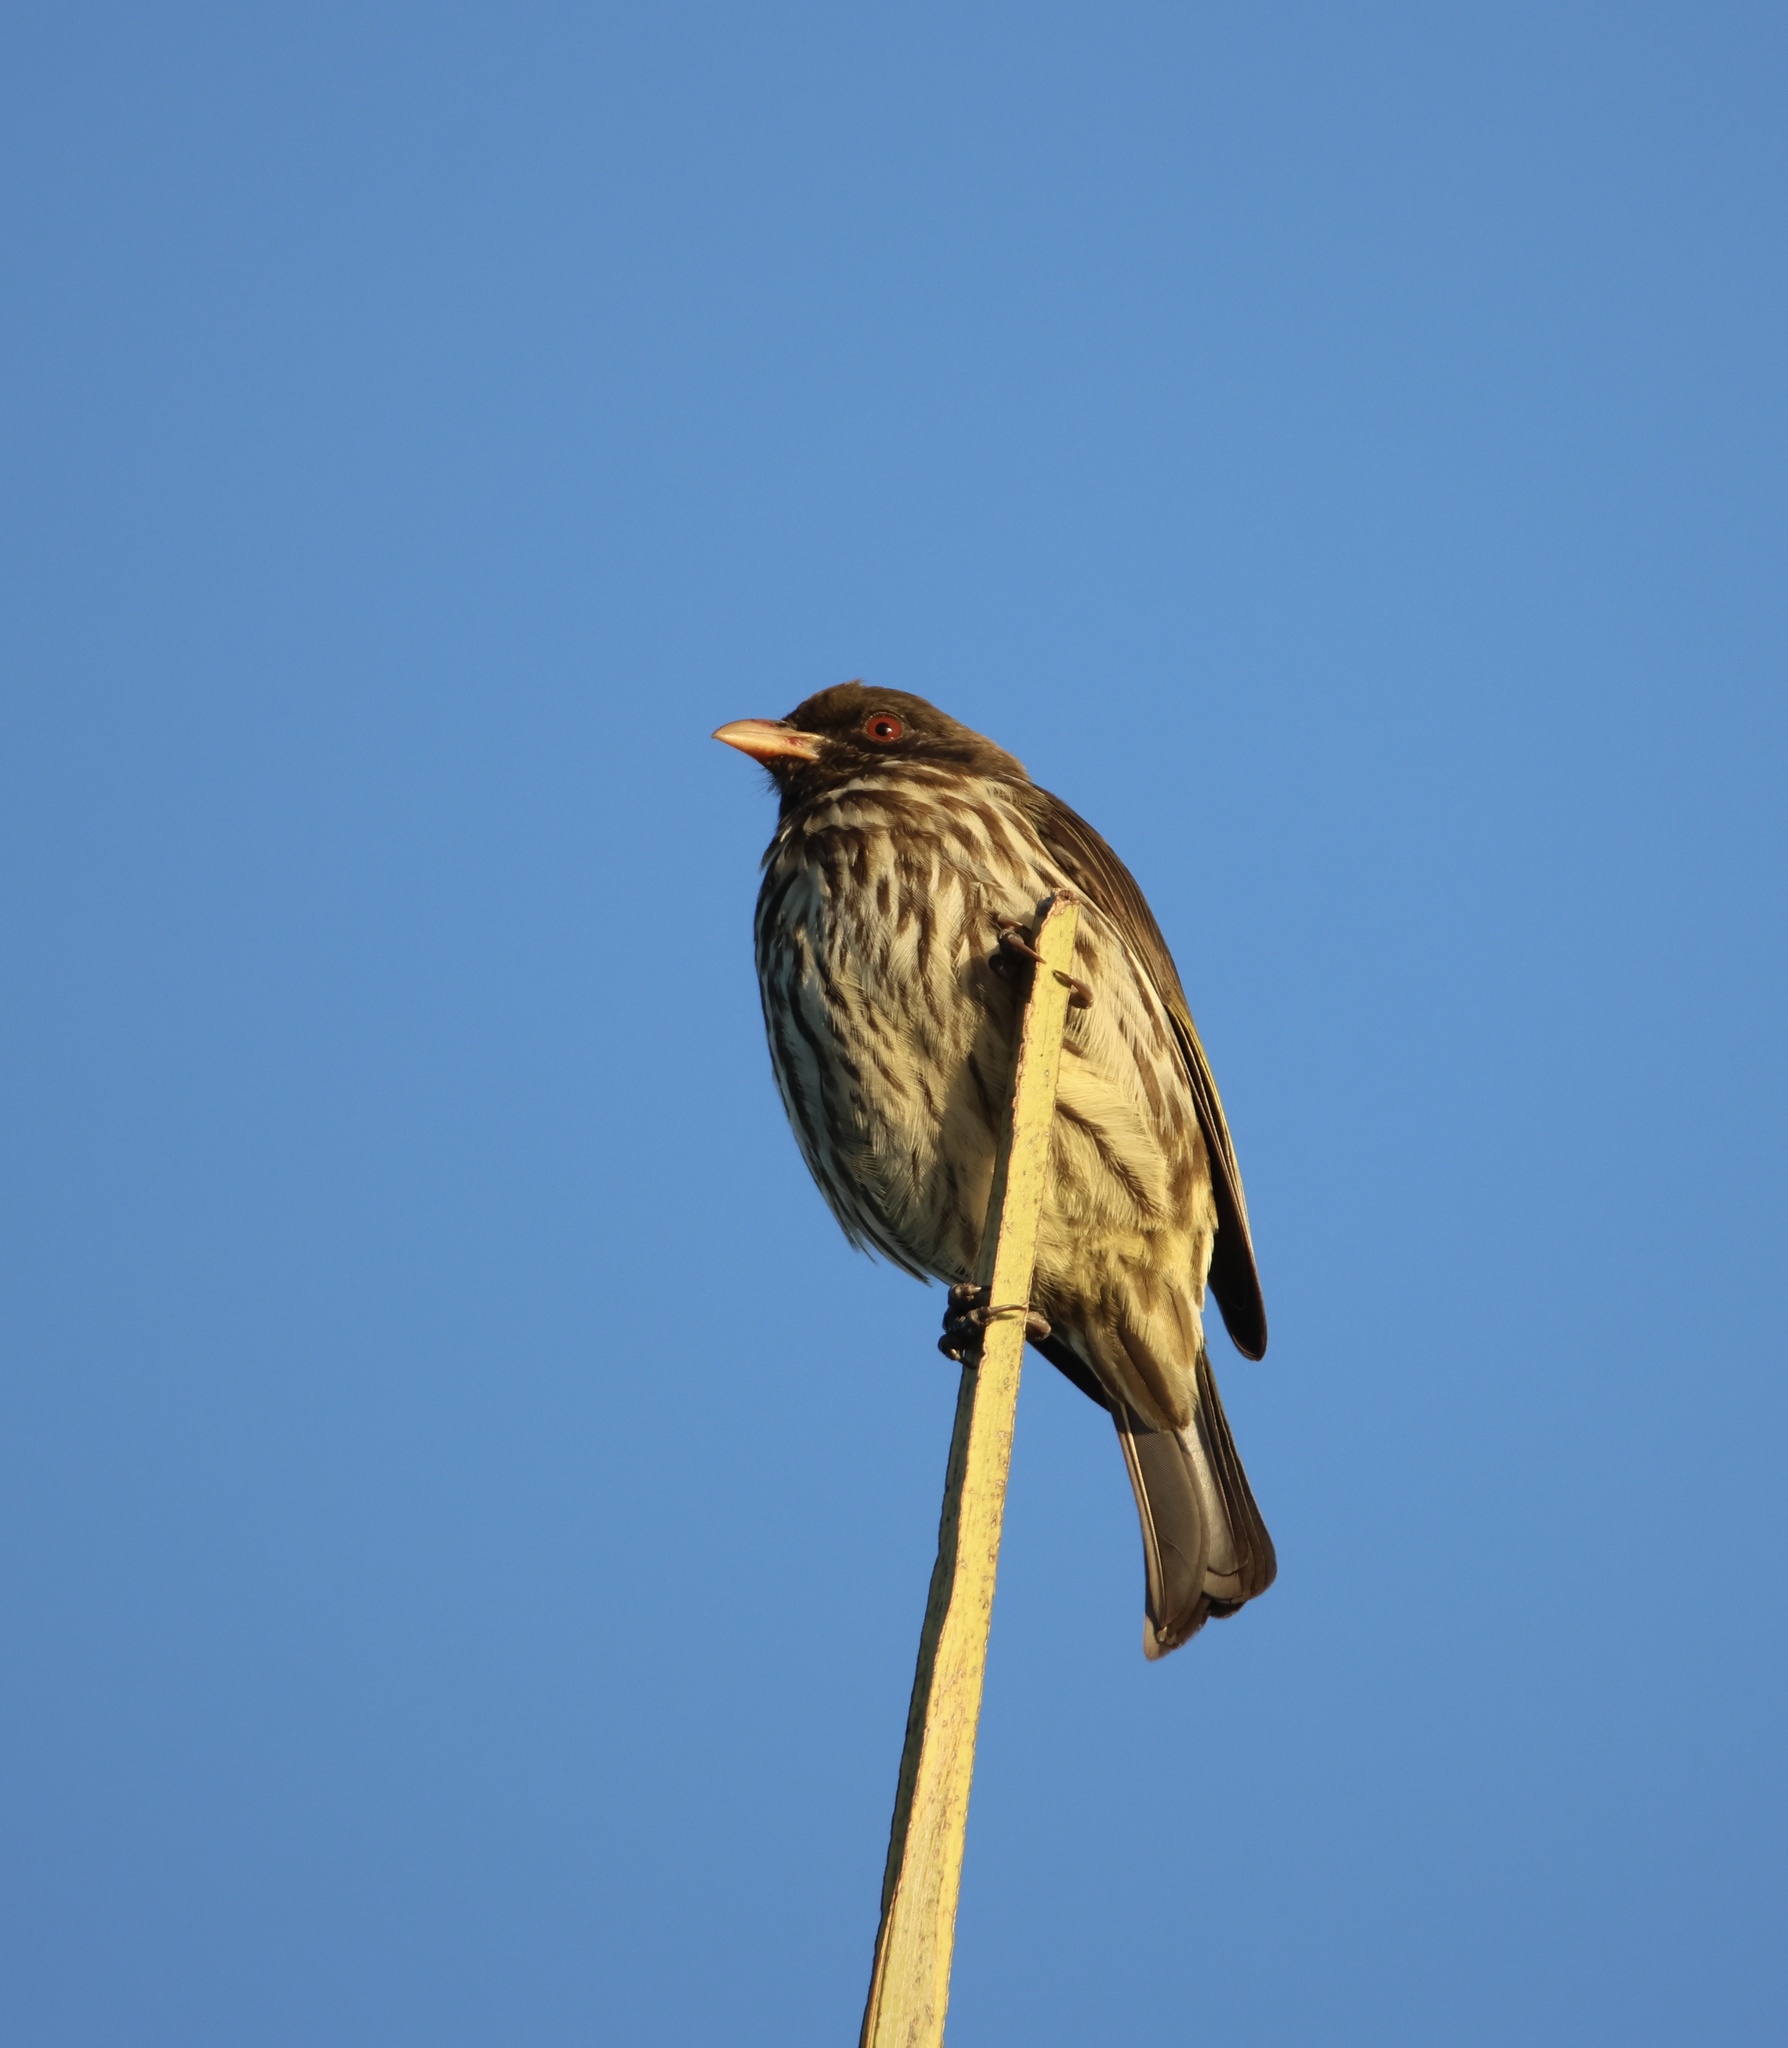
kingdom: Animalia
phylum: Chordata
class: Aves
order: Passeriformes
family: Dulidae
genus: Dulus
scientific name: Dulus dominicus
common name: Palmchat
